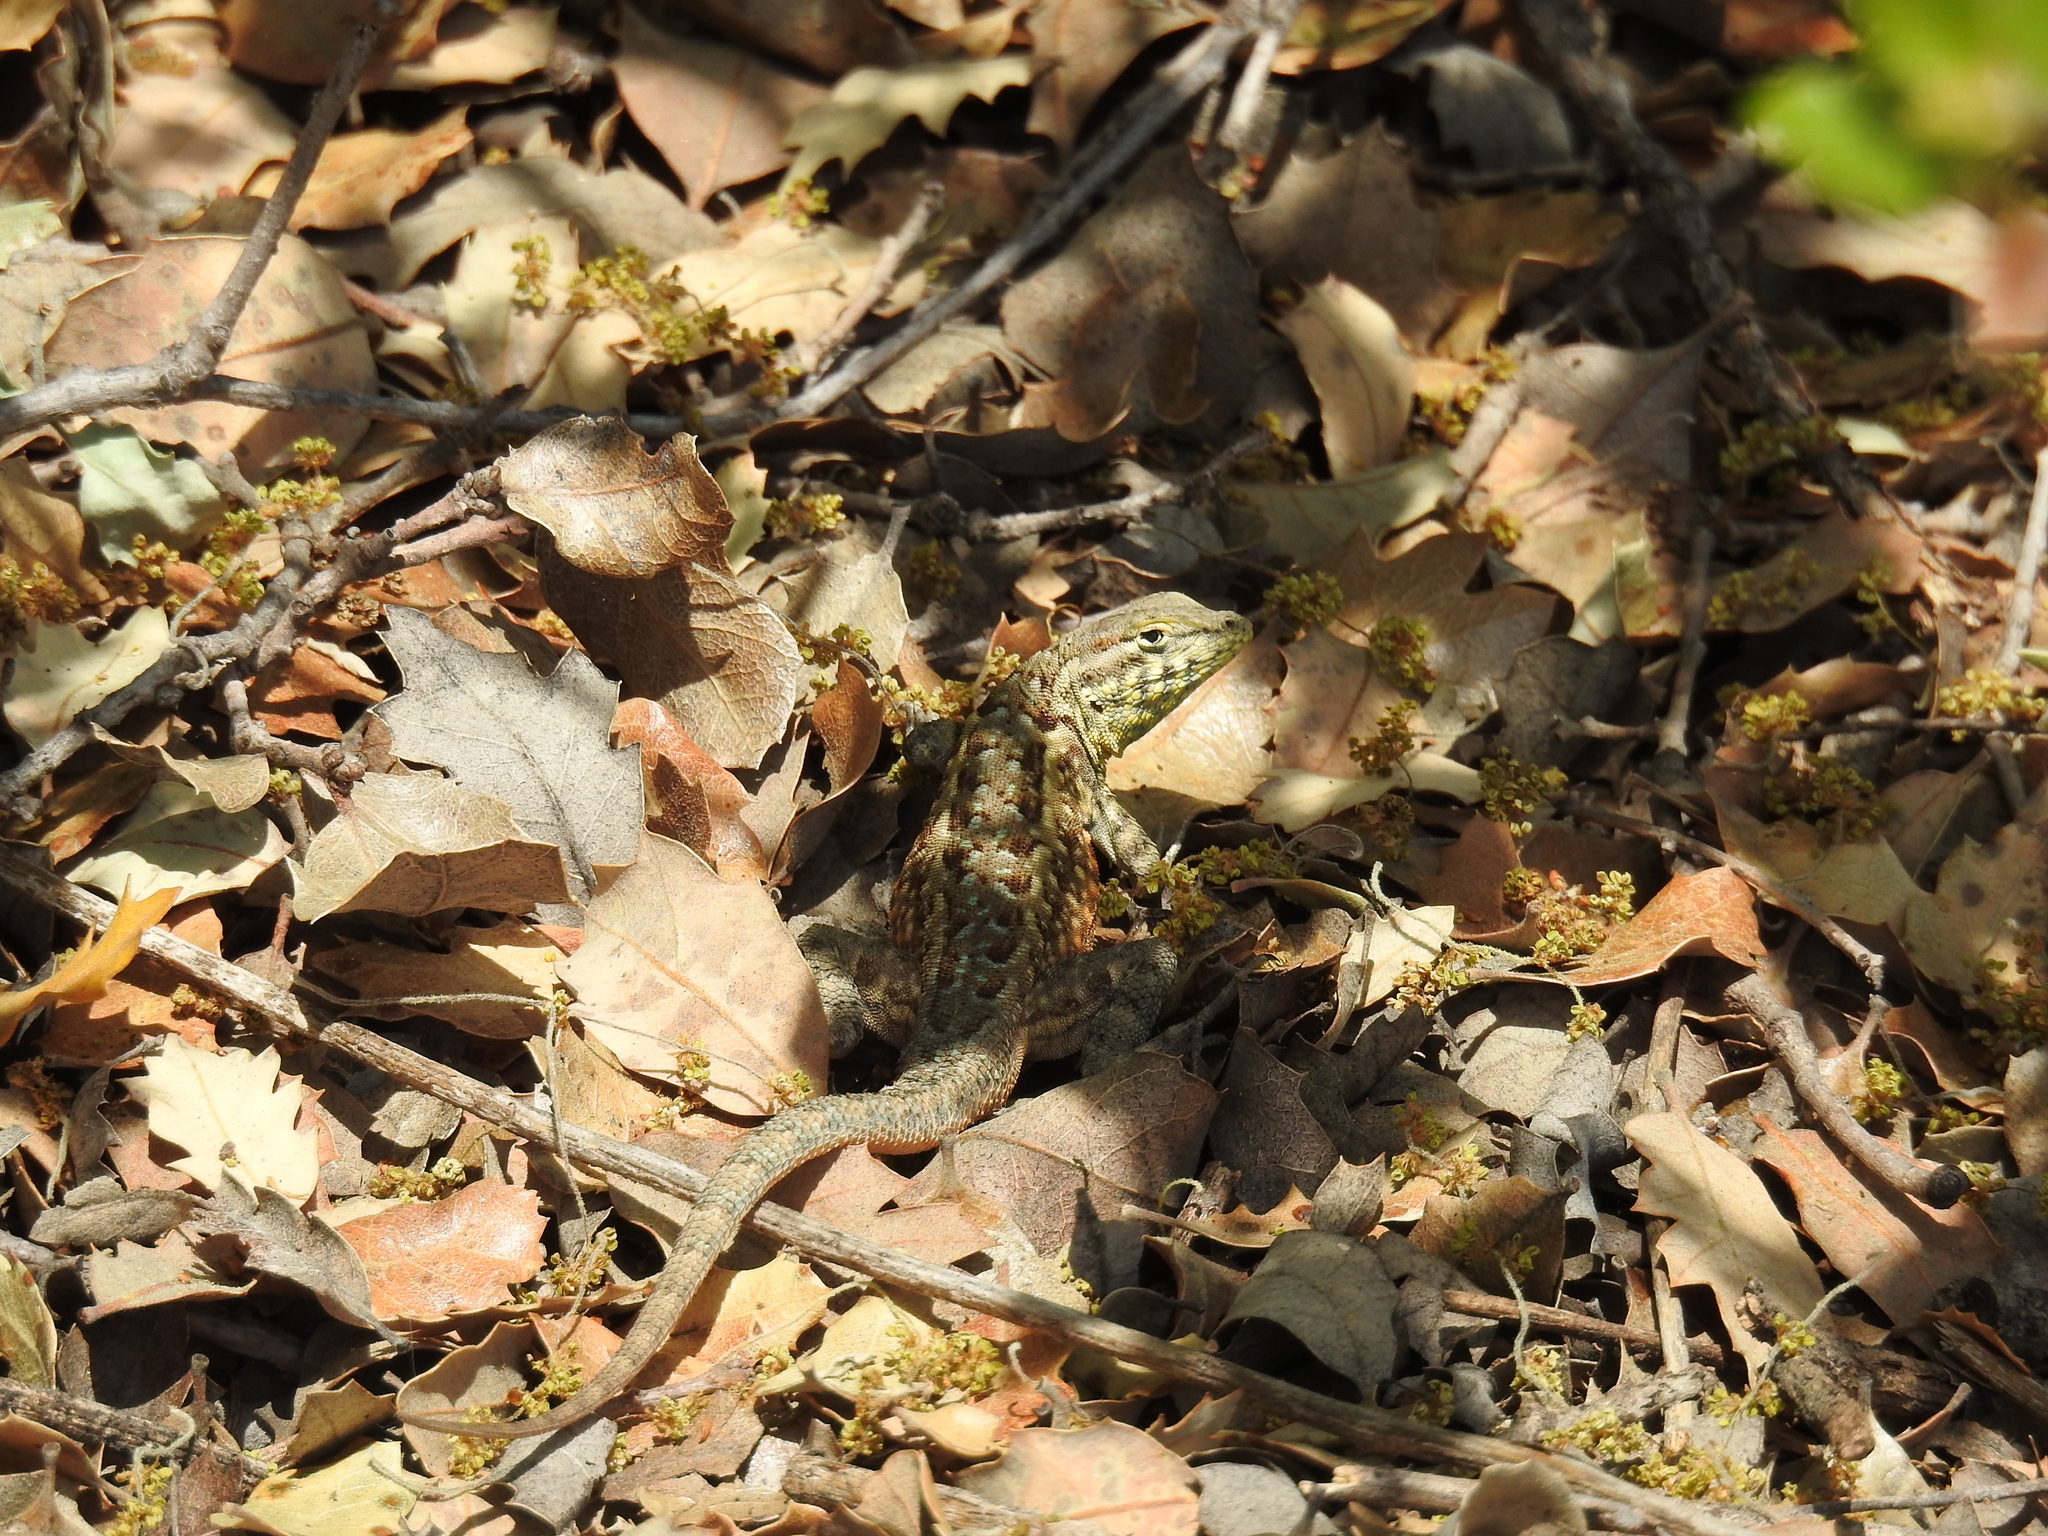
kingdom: Animalia
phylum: Chordata
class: Squamata
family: Phrynosomatidae
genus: Uta
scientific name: Uta stansburiana
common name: Side-blotched lizard
